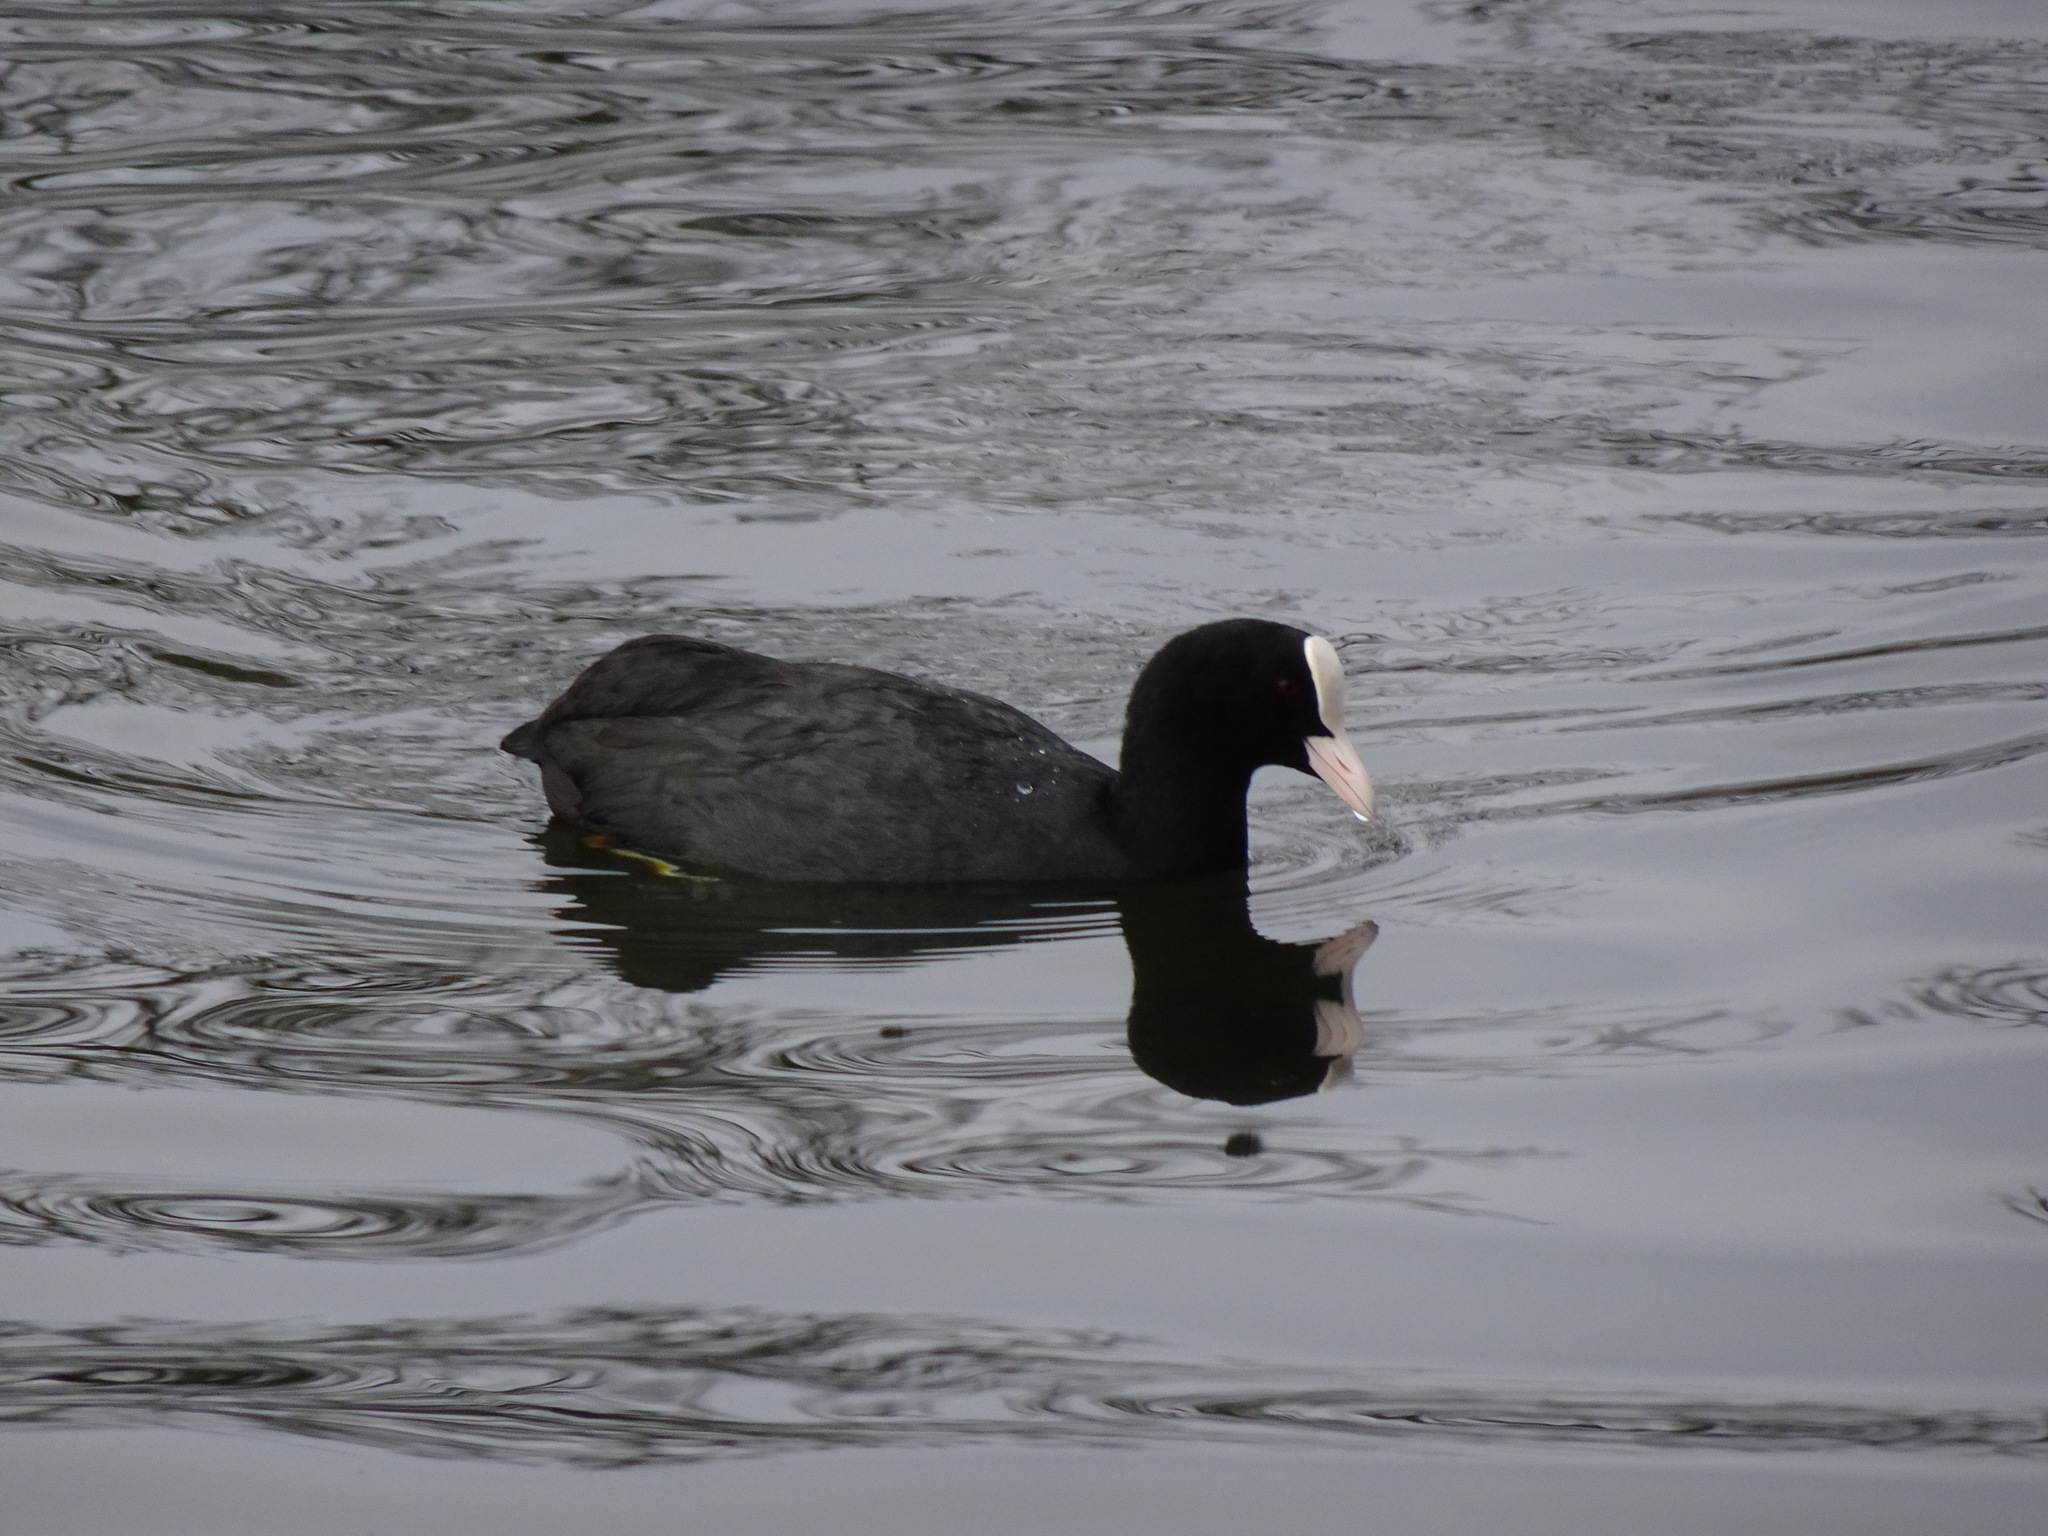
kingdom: Animalia
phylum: Chordata
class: Aves
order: Gruiformes
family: Rallidae
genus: Fulica
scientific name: Fulica atra
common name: Eurasian coot
